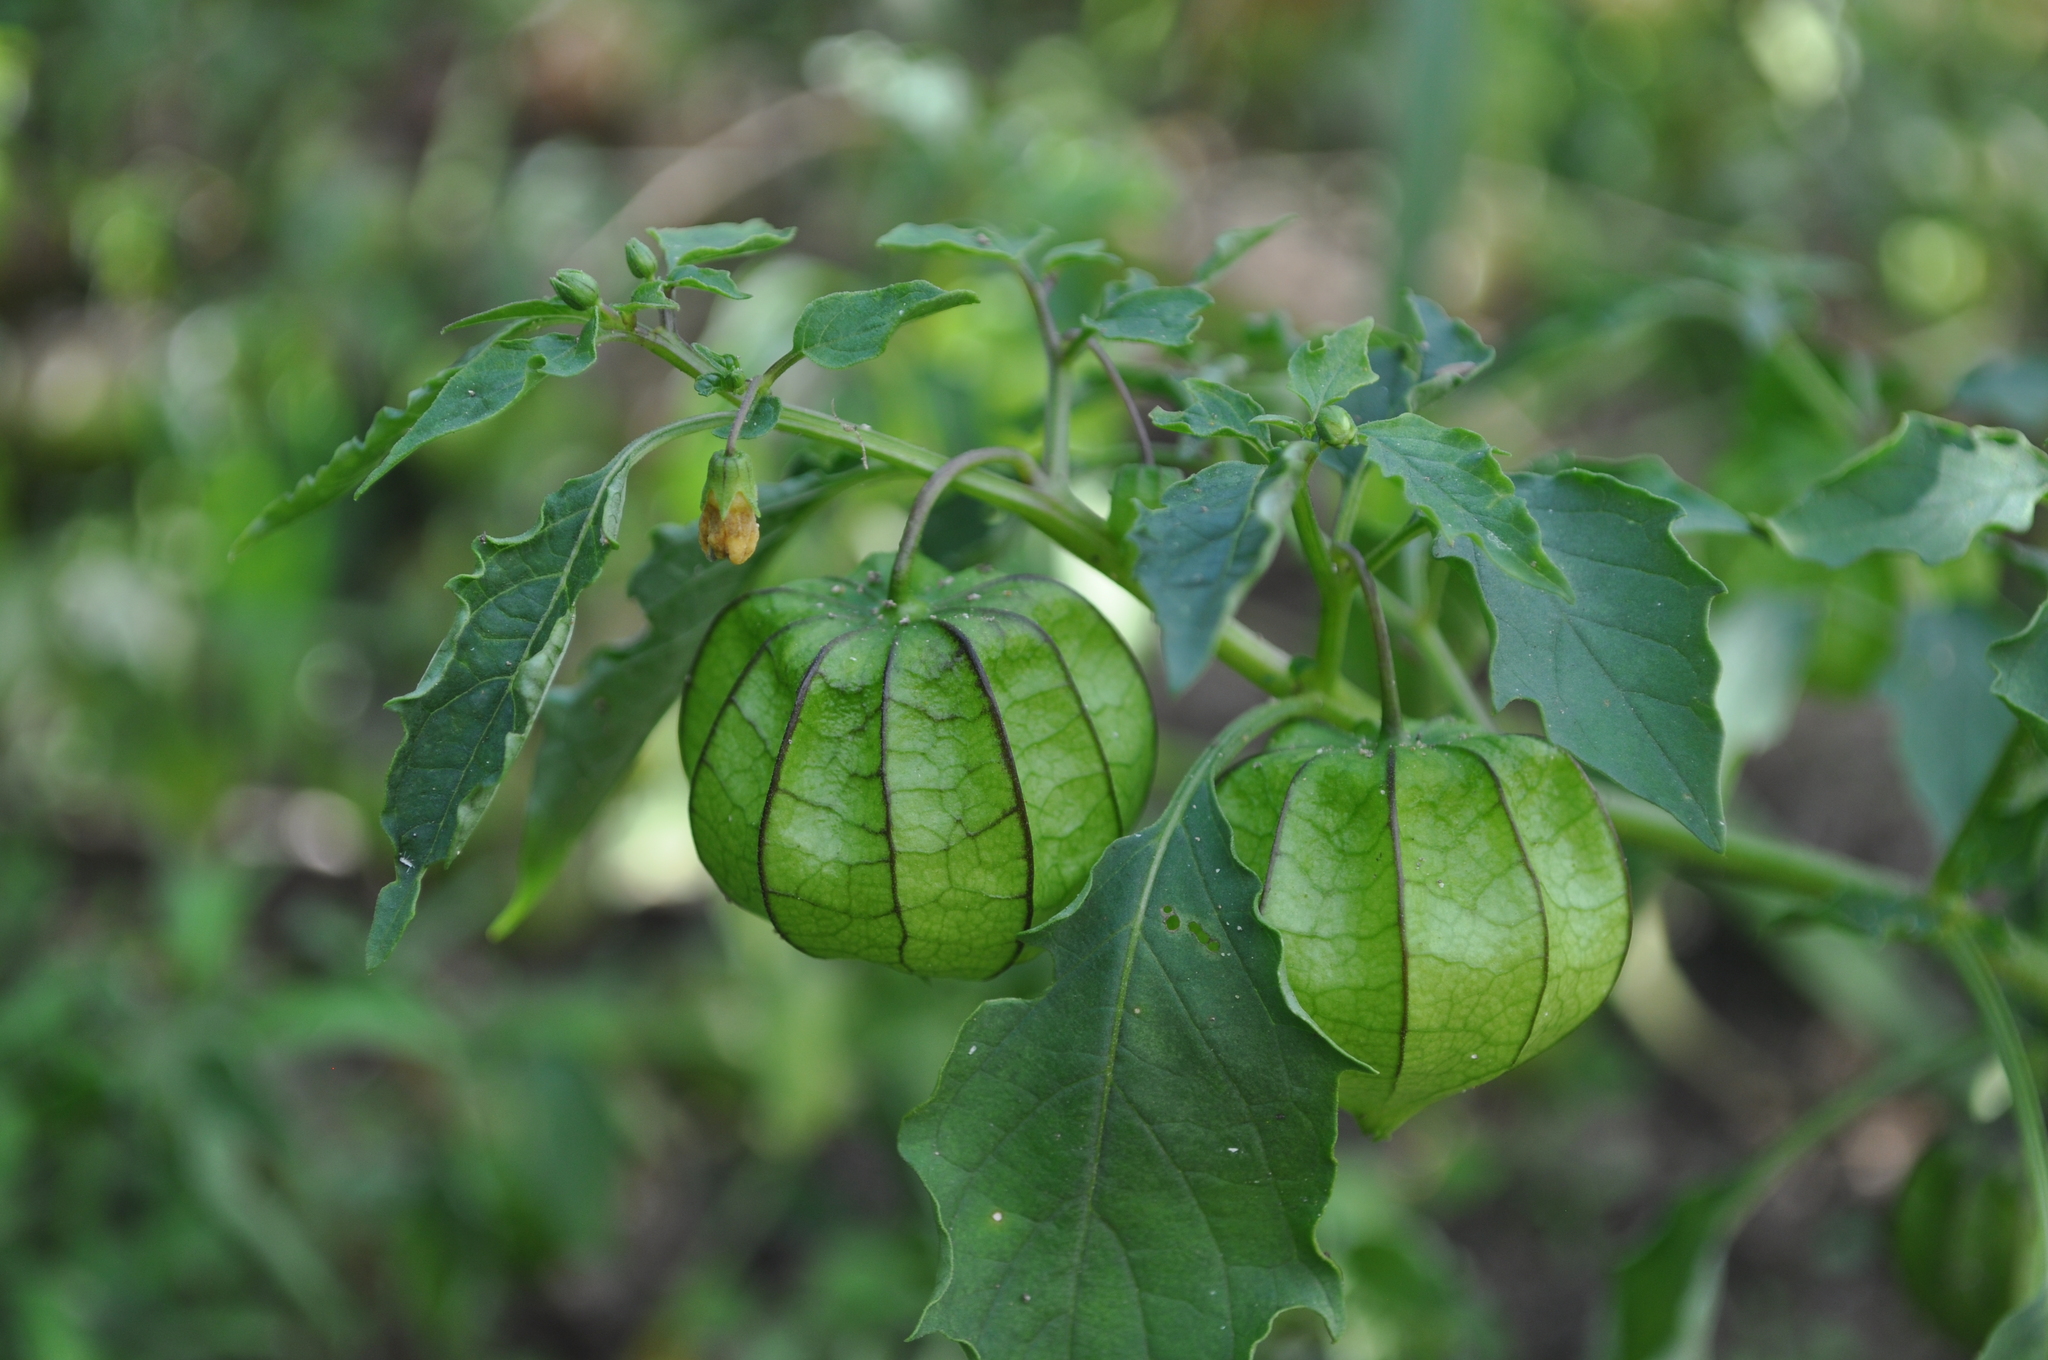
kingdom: Plantae
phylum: Tracheophyta
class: Magnoliopsida
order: Solanales
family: Solanaceae
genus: Physalis
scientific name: Physalis angulata
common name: Angular winter-cherry
